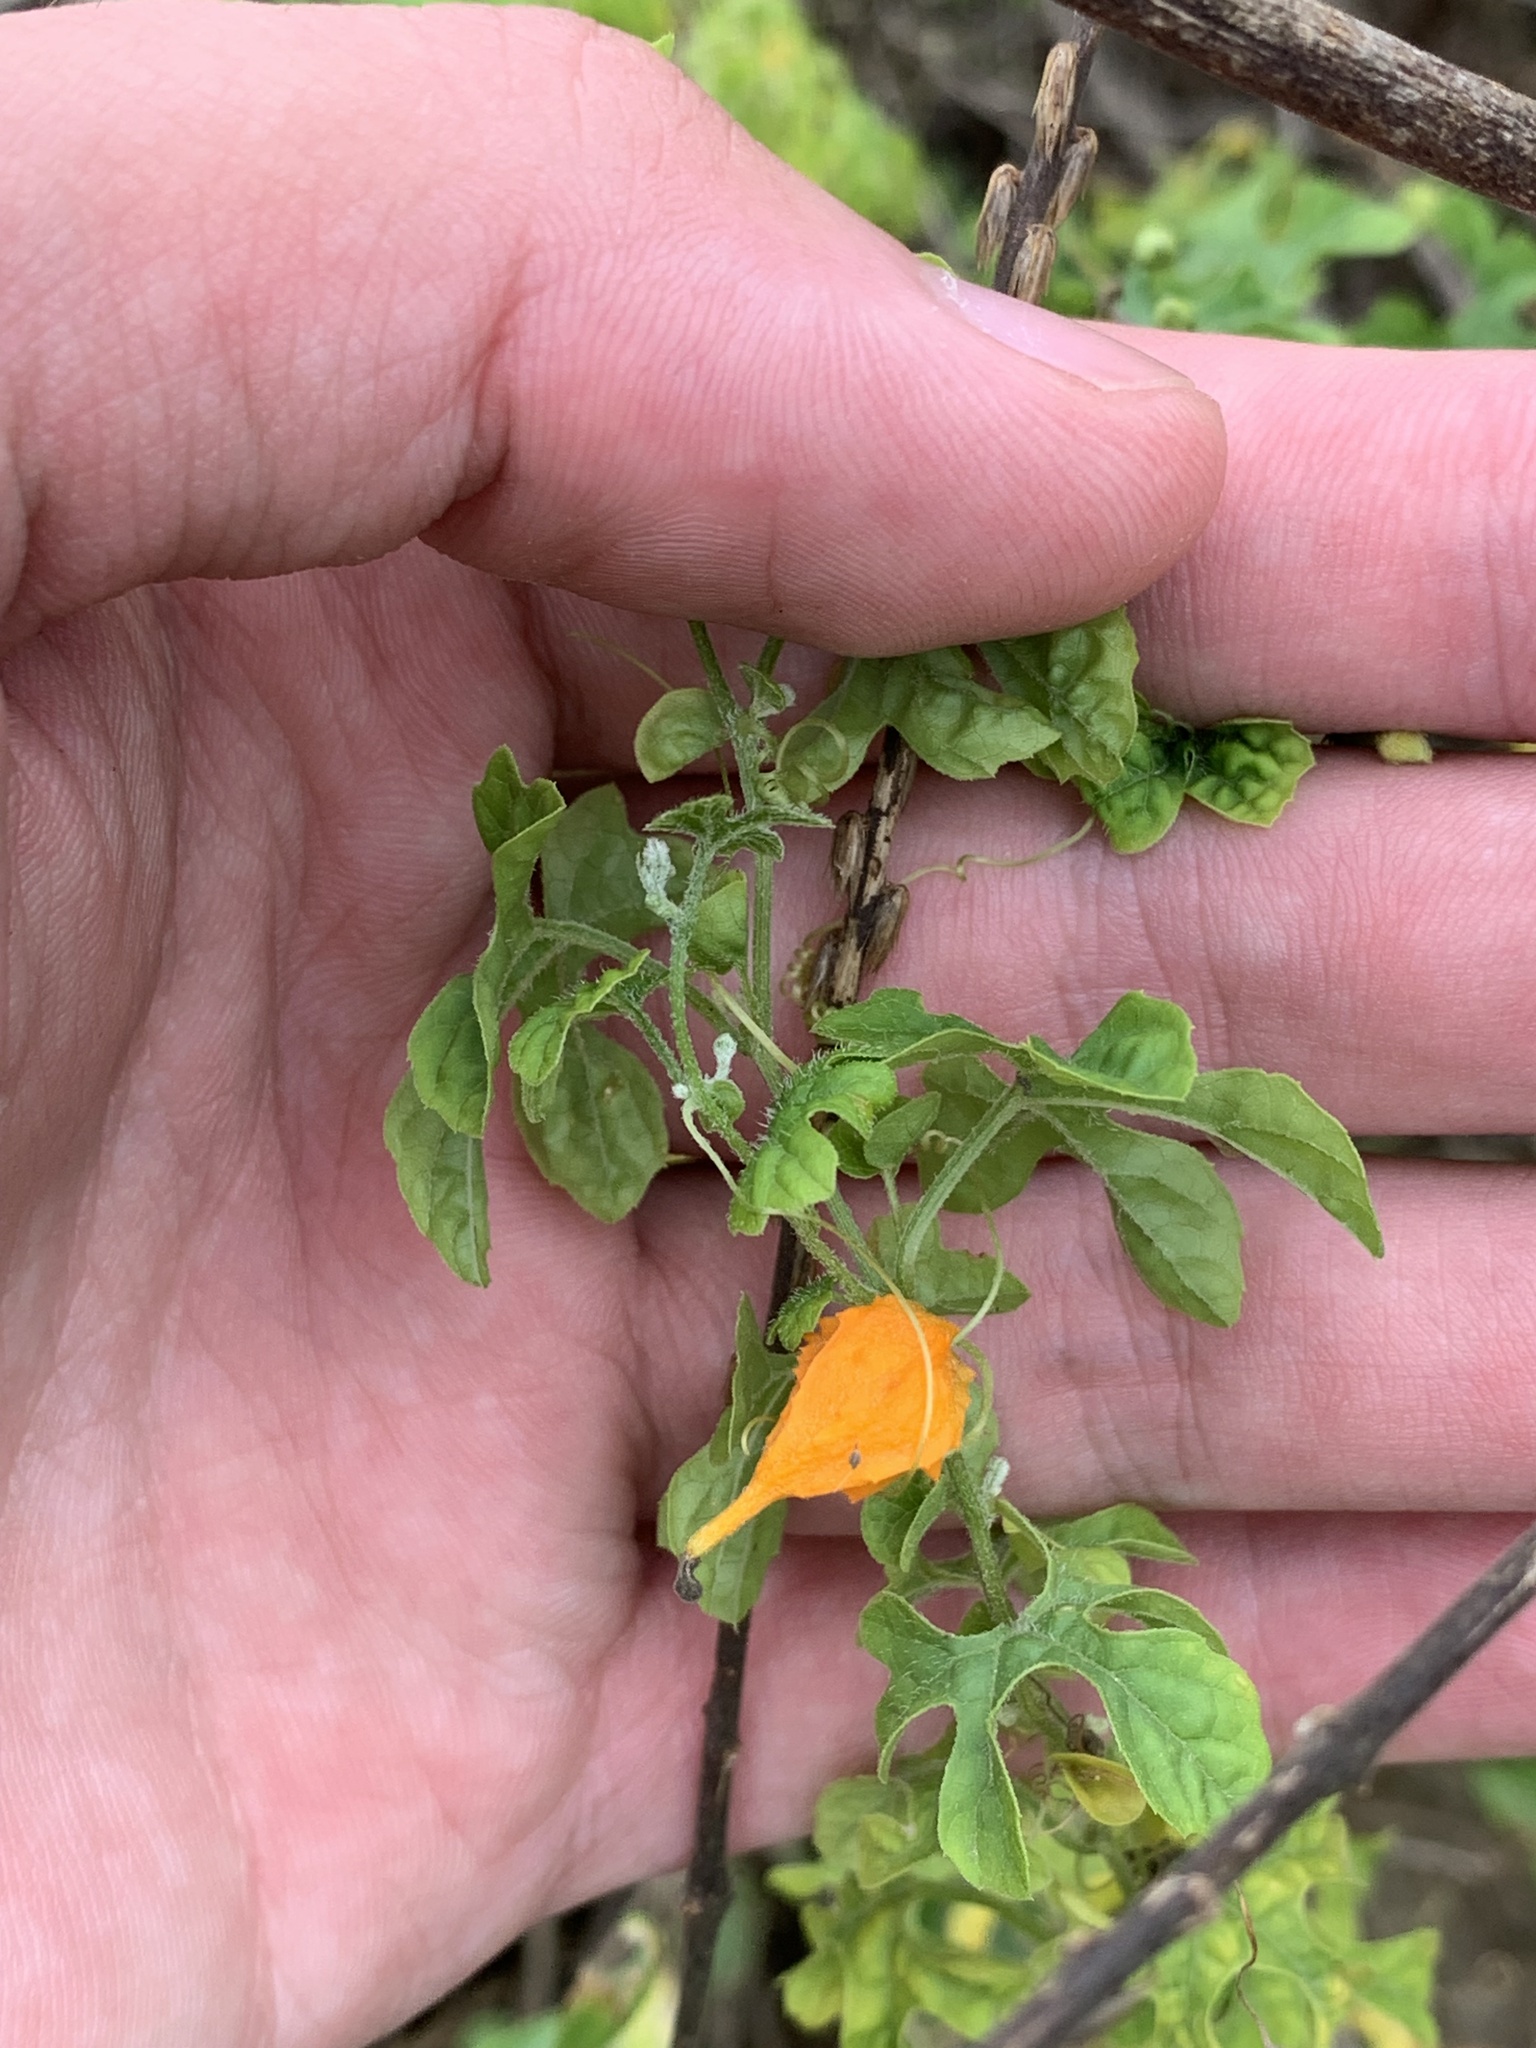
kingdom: Plantae
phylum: Tracheophyta
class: Magnoliopsida
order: Cucurbitales
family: Cucurbitaceae
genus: Momordica
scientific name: Momordica charantia
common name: Balsampear
